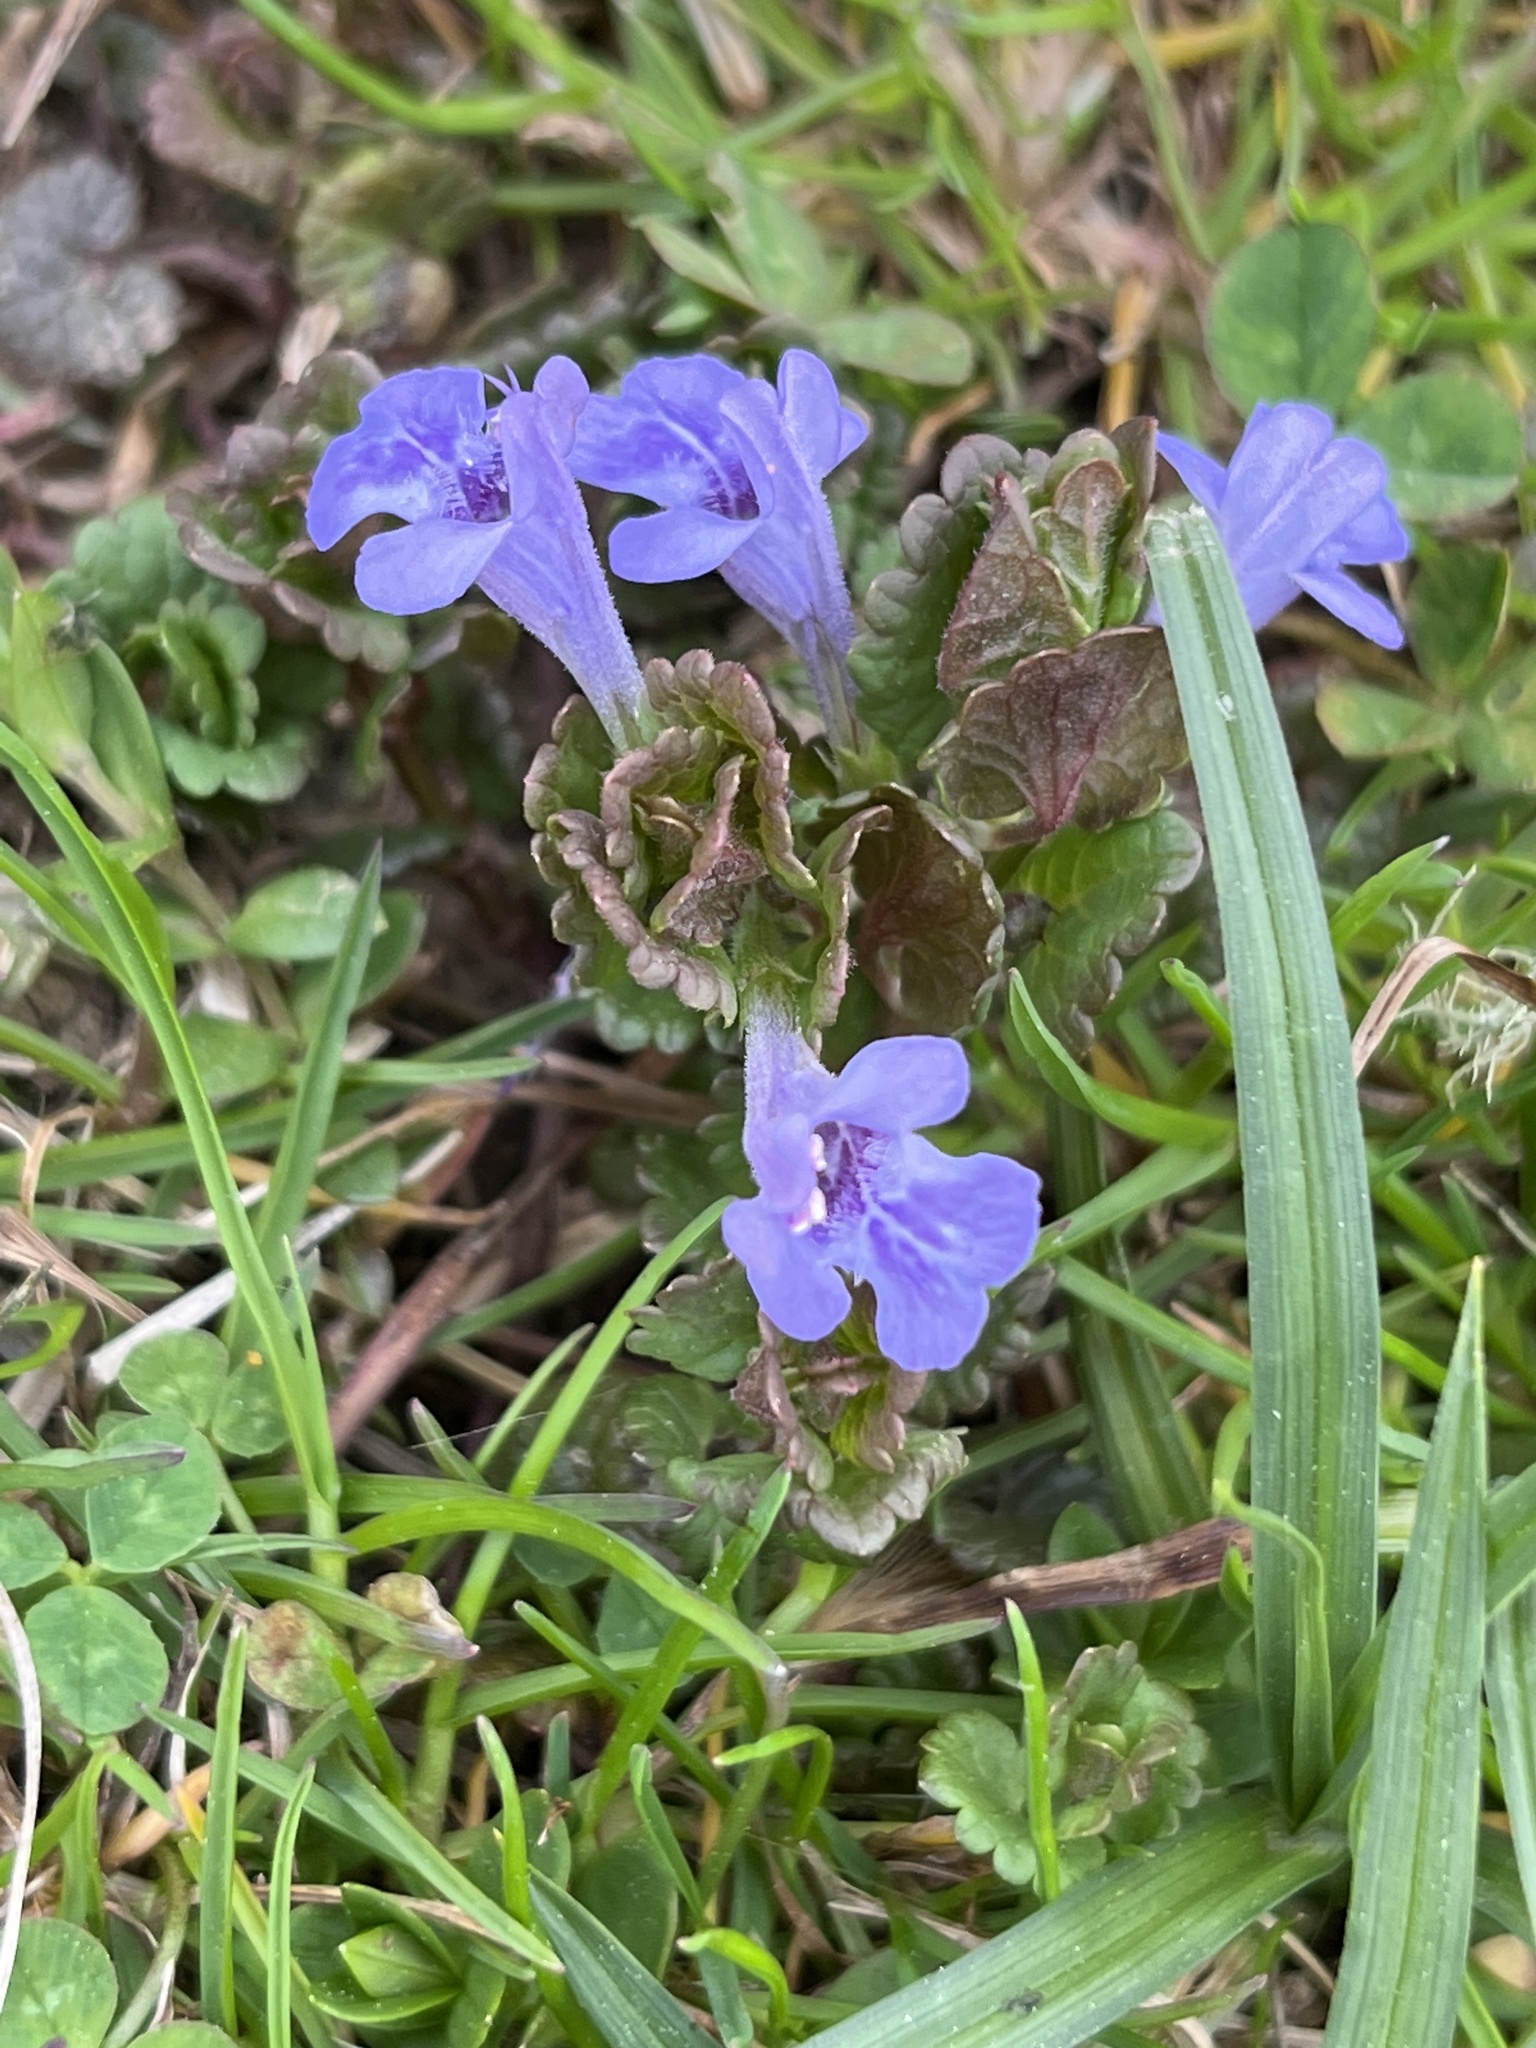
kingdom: Plantae
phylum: Tracheophyta
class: Magnoliopsida
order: Lamiales
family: Lamiaceae
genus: Glechoma
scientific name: Glechoma hederacea
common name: Ground ivy
